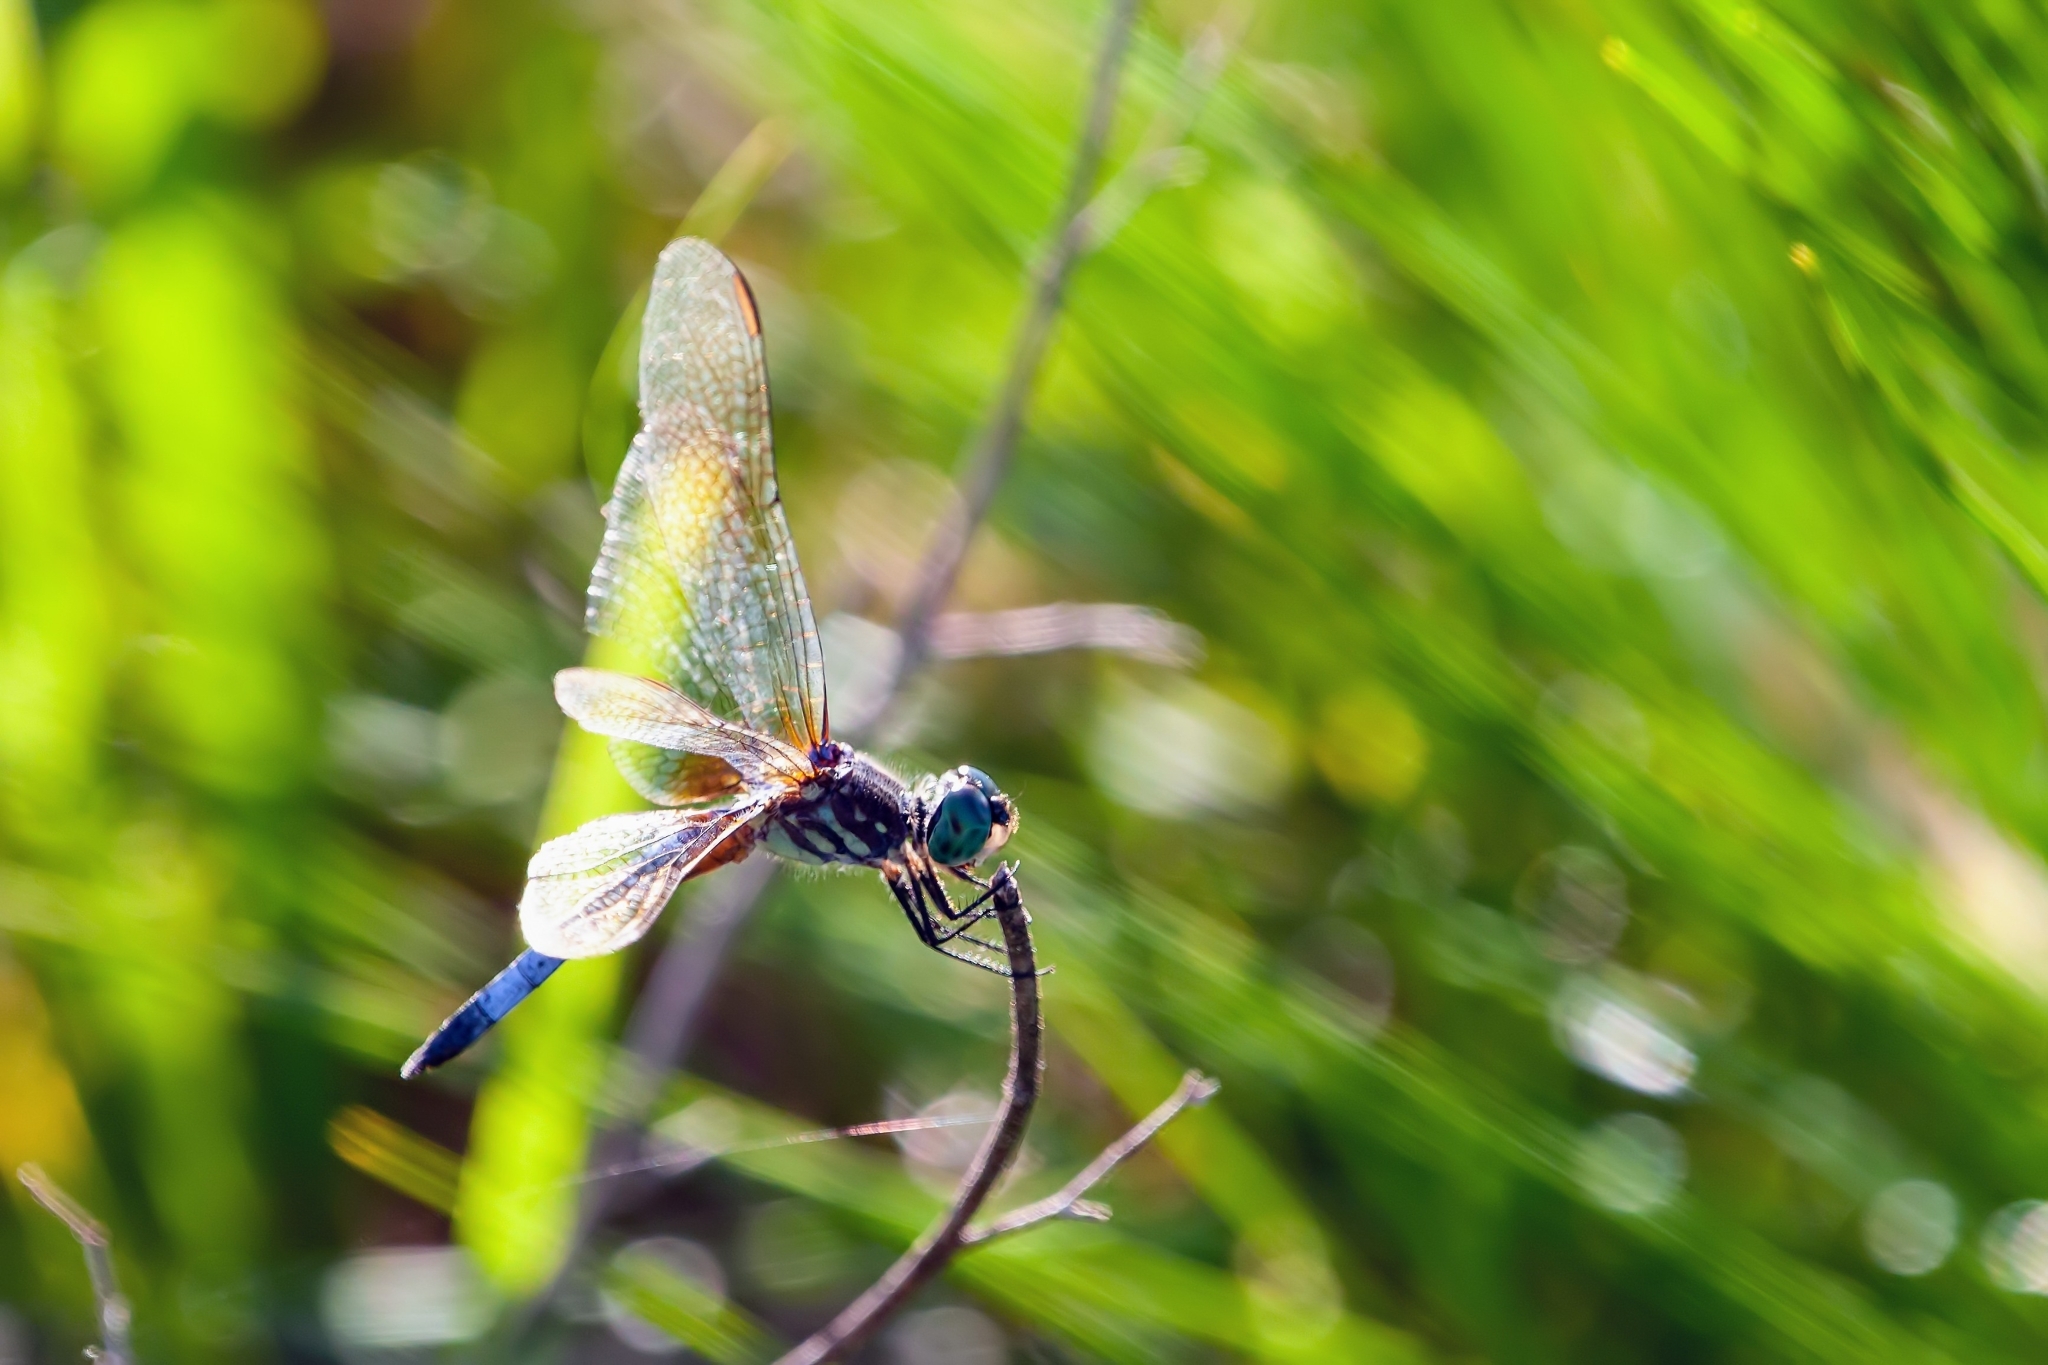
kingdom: Animalia
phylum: Arthropoda
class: Insecta
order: Odonata
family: Libellulidae
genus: Pachydiplax
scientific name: Pachydiplax longipennis
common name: Blue dasher
